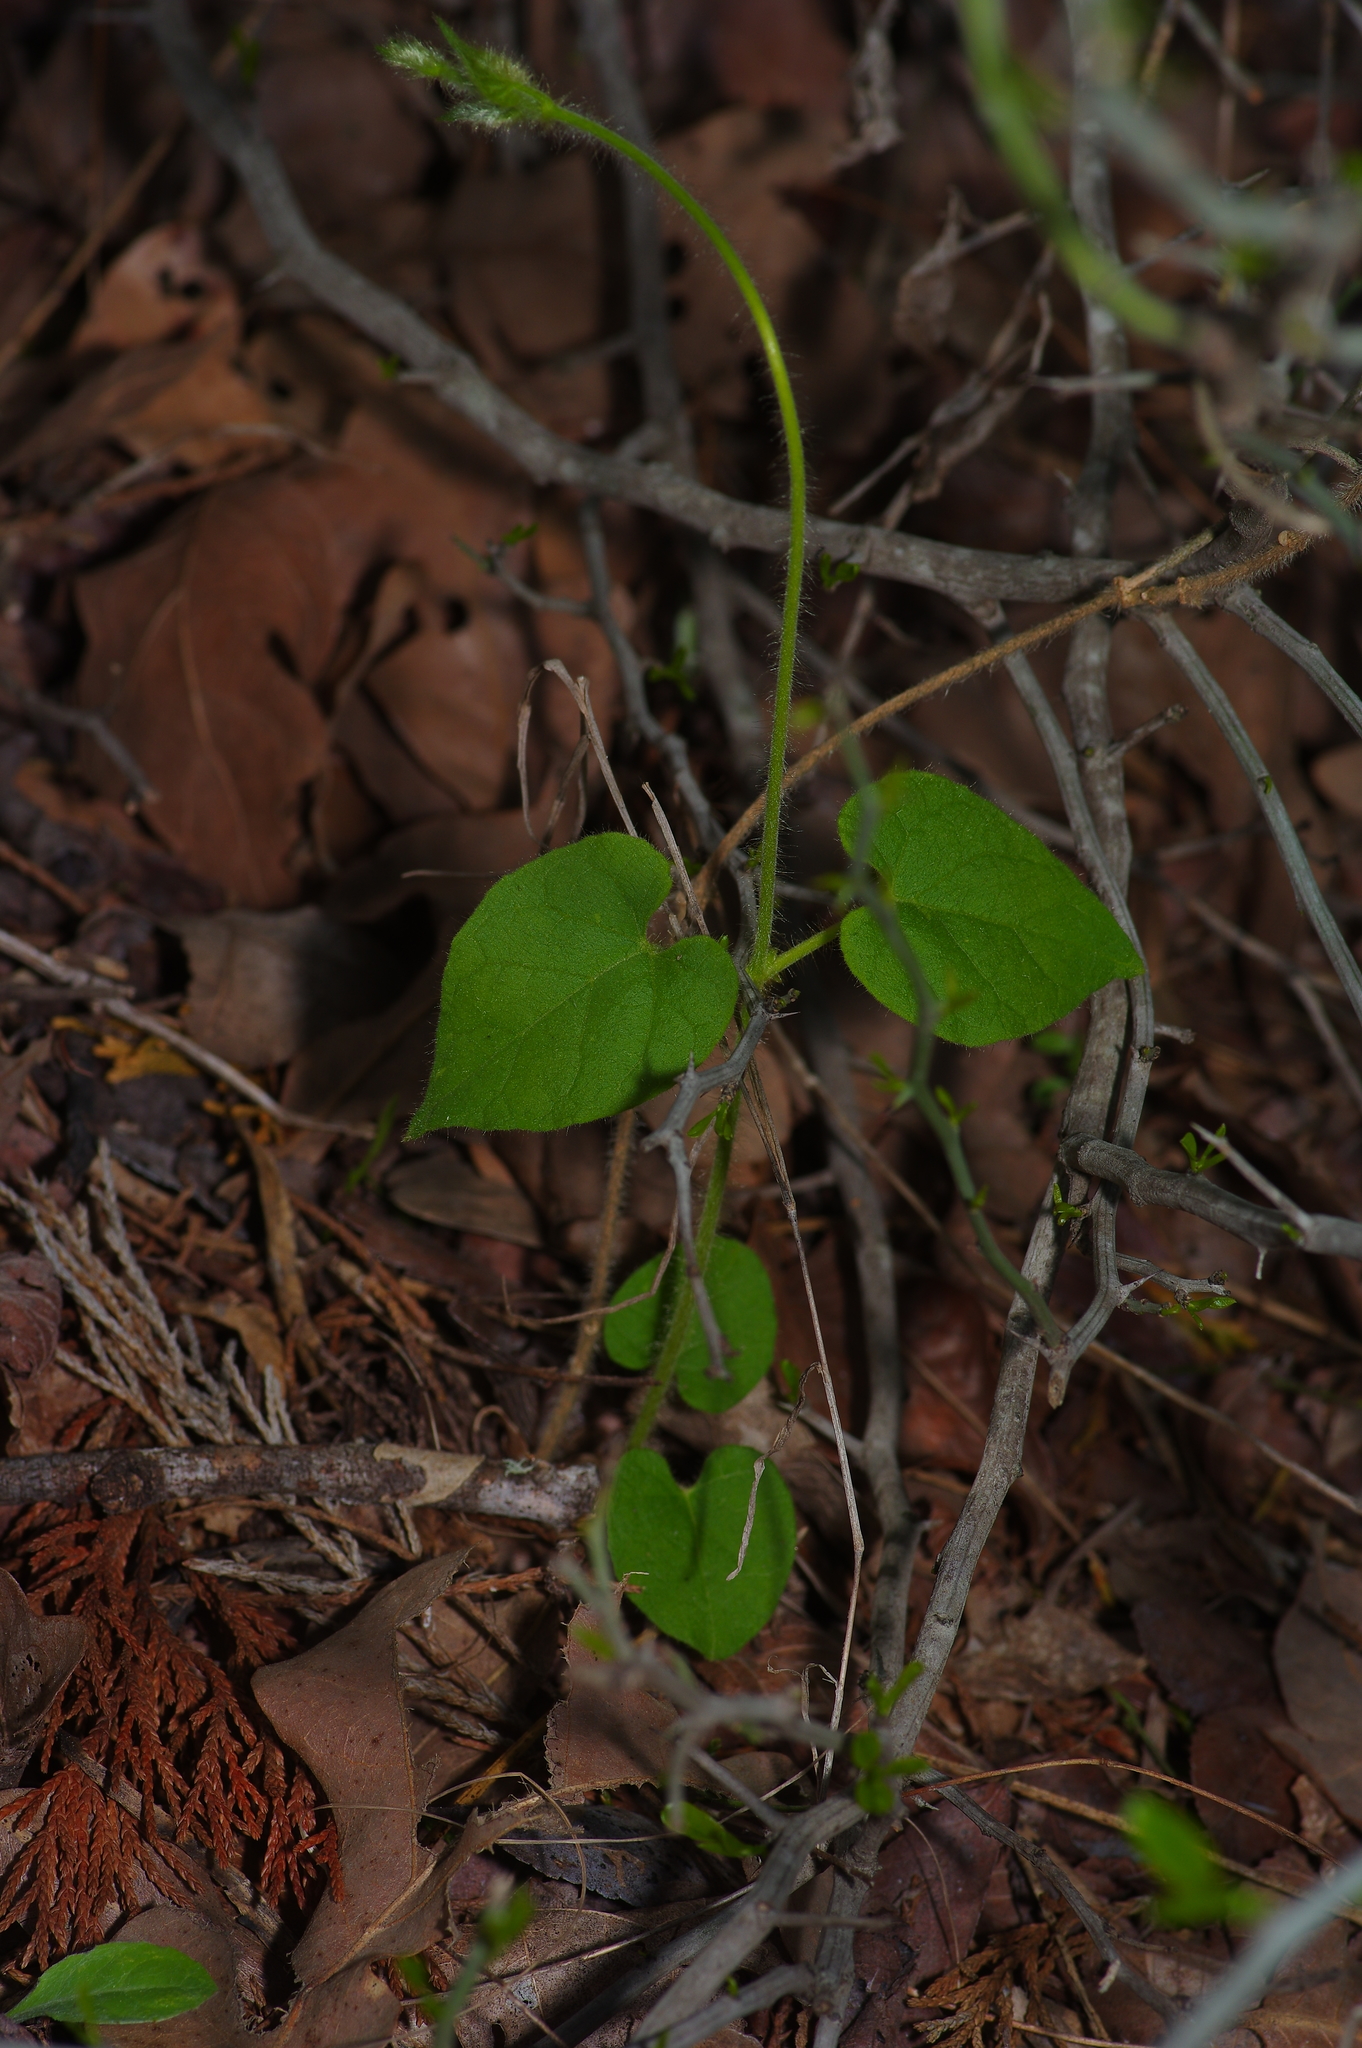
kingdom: Plantae
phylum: Tracheophyta
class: Magnoliopsida
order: Gentianales
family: Apocynaceae
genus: Dictyanthus
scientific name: Dictyanthus reticulatus
